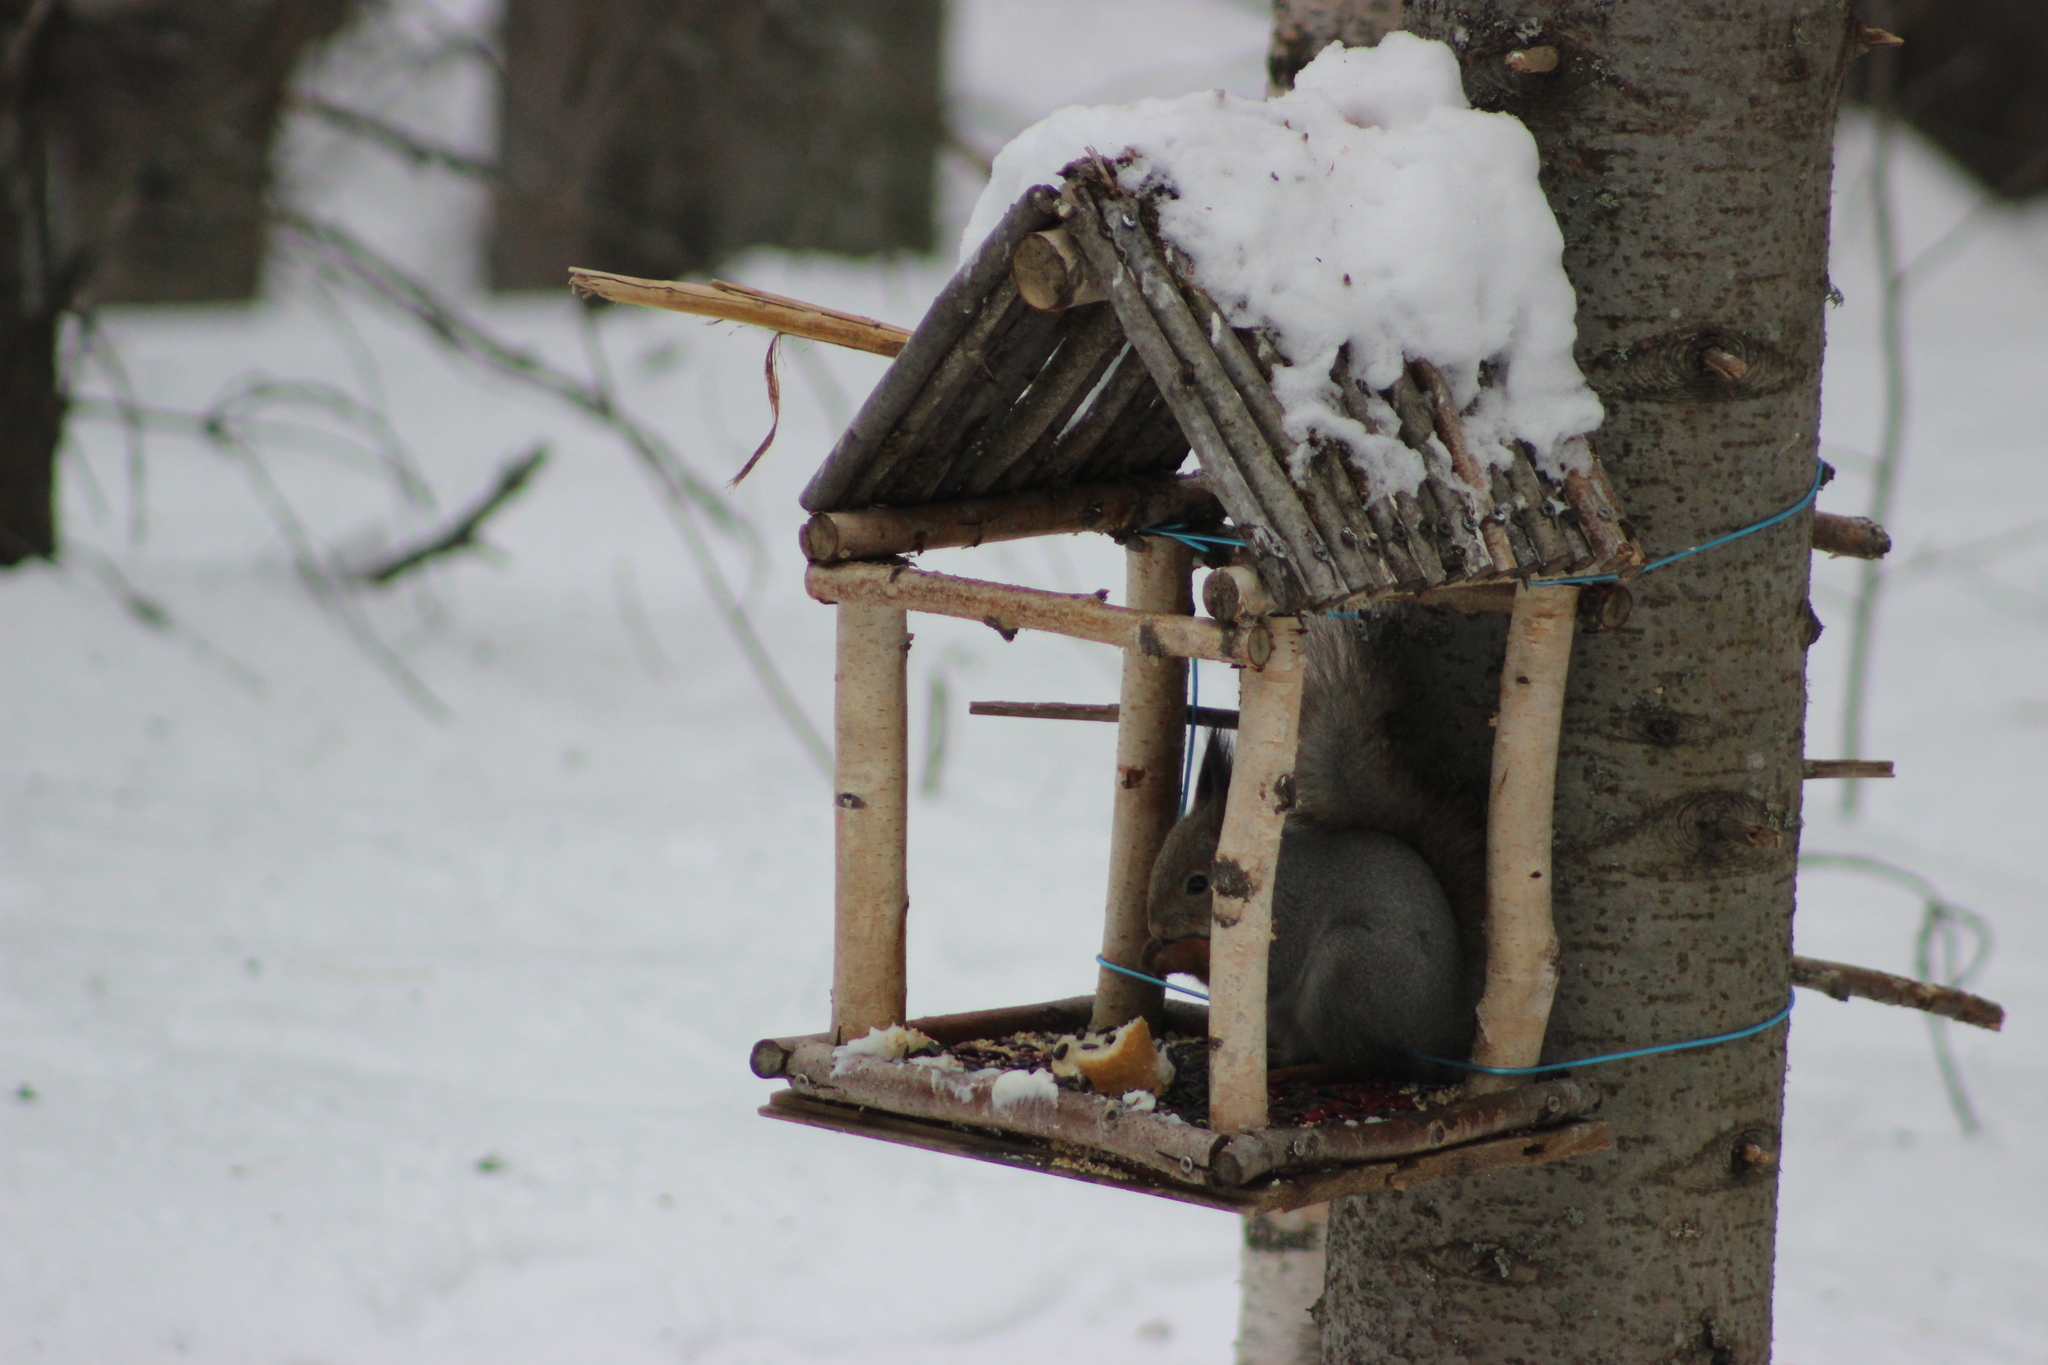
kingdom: Animalia
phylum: Chordata
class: Mammalia
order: Rodentia
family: Sciuridae
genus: Sciurus
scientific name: Sciurus vulgaris
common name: Eurasian red squirrel
